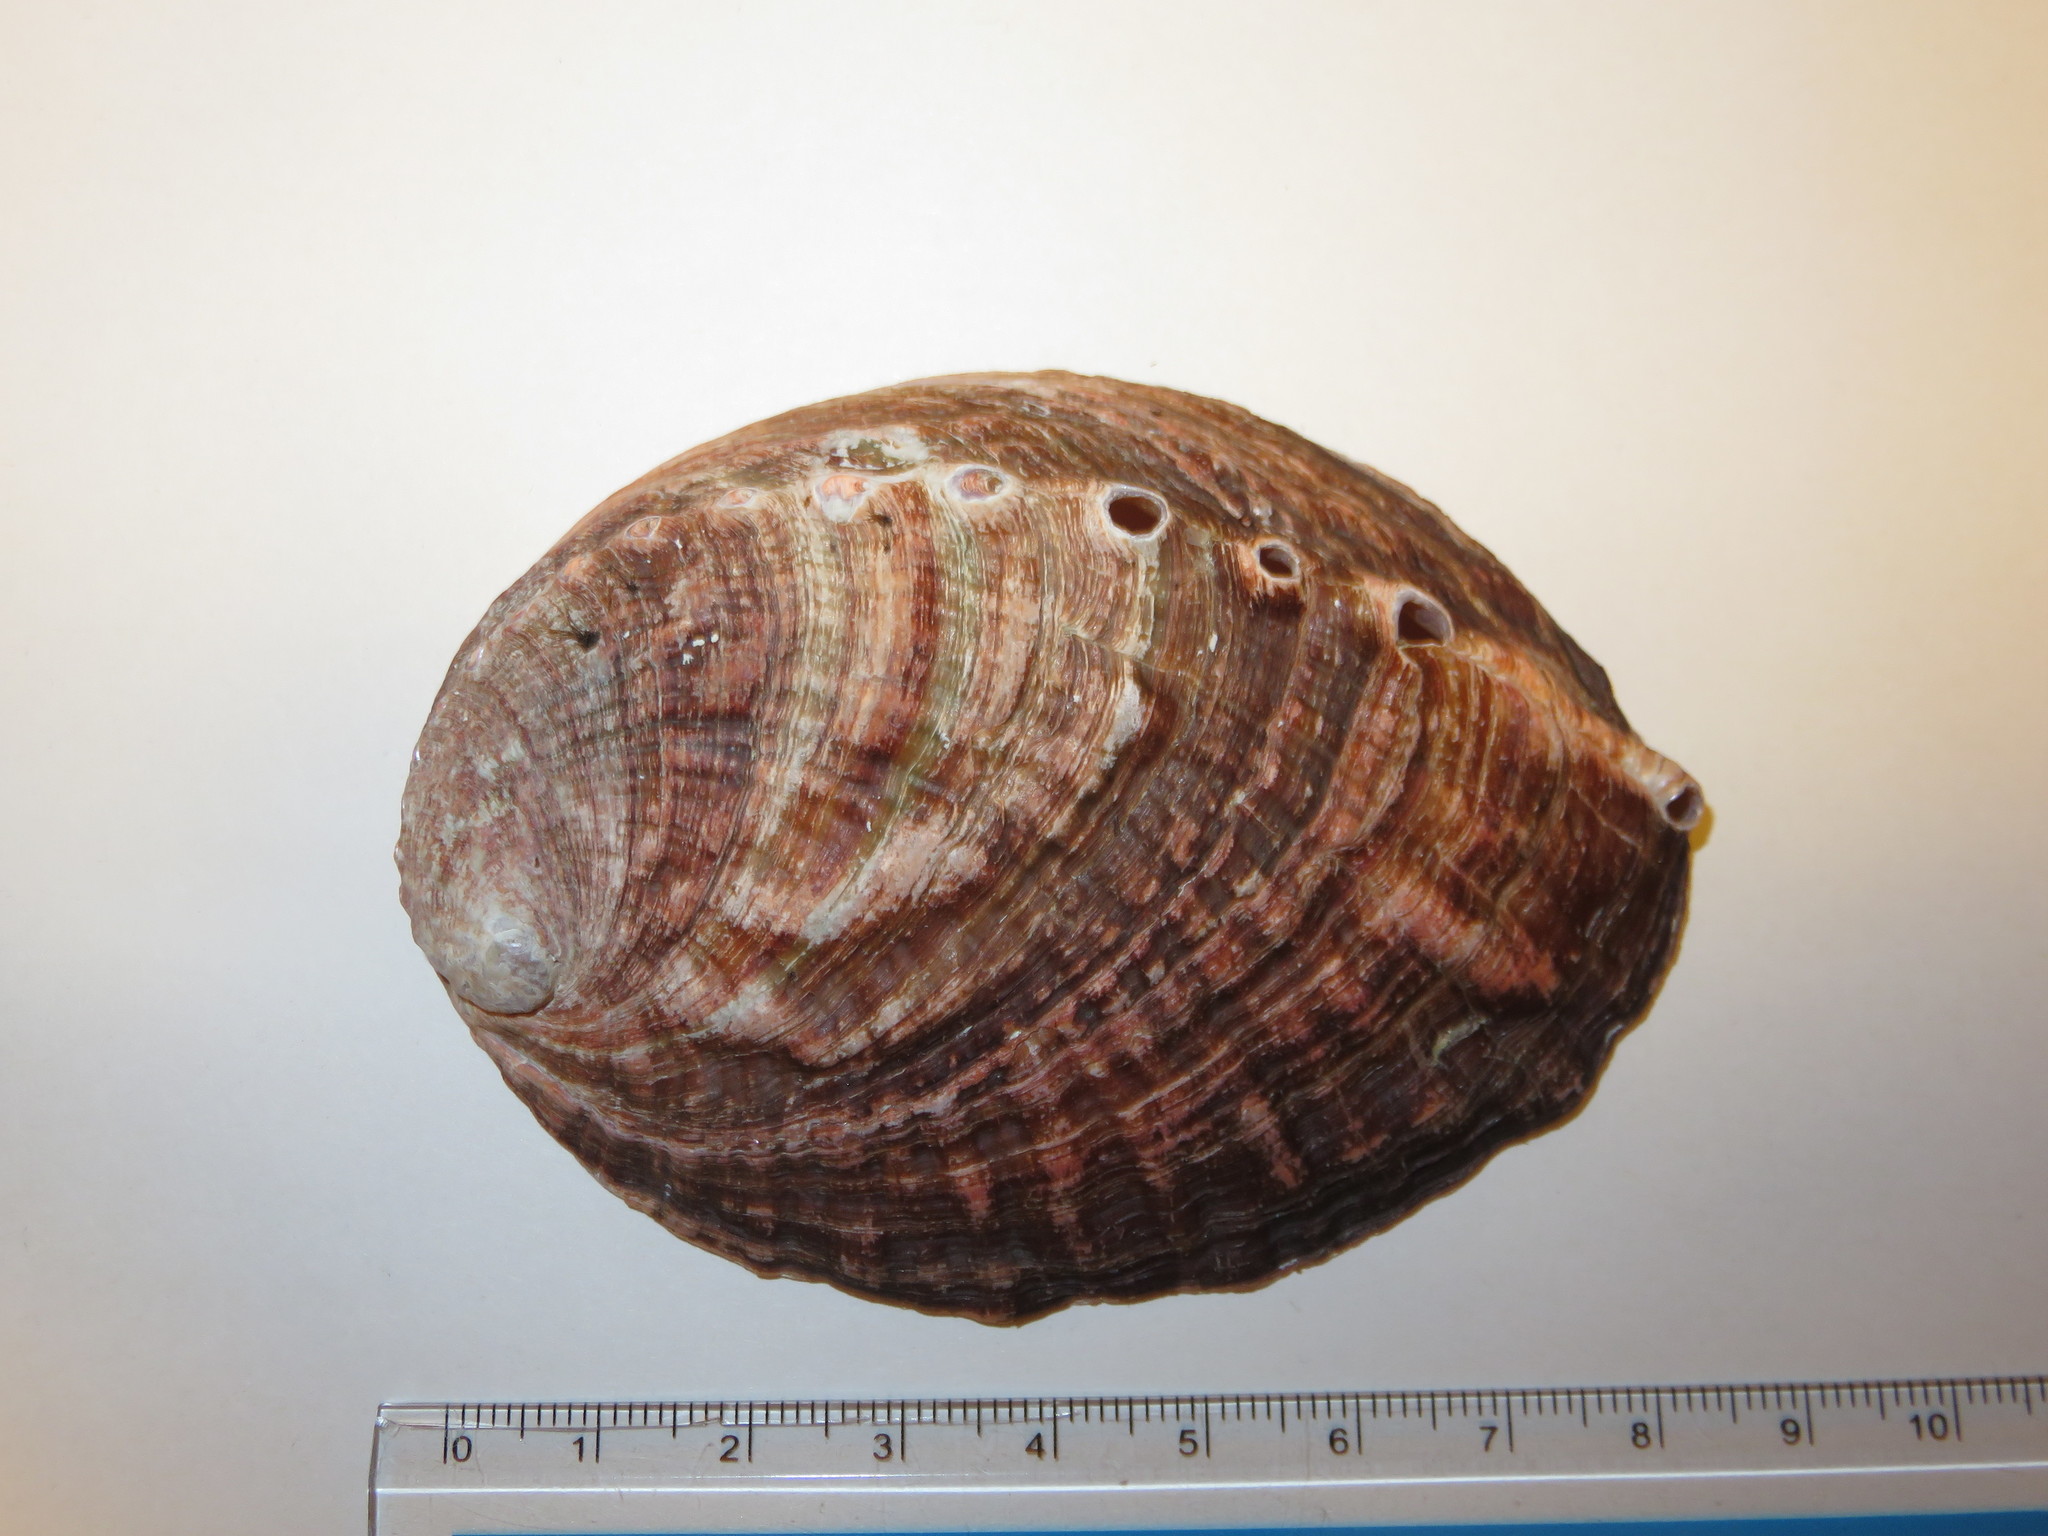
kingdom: Animalia
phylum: Mollusca
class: Gastropoda
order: Lepetellida
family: Haliotidae
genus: Haliotis
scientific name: Haliotis discus
